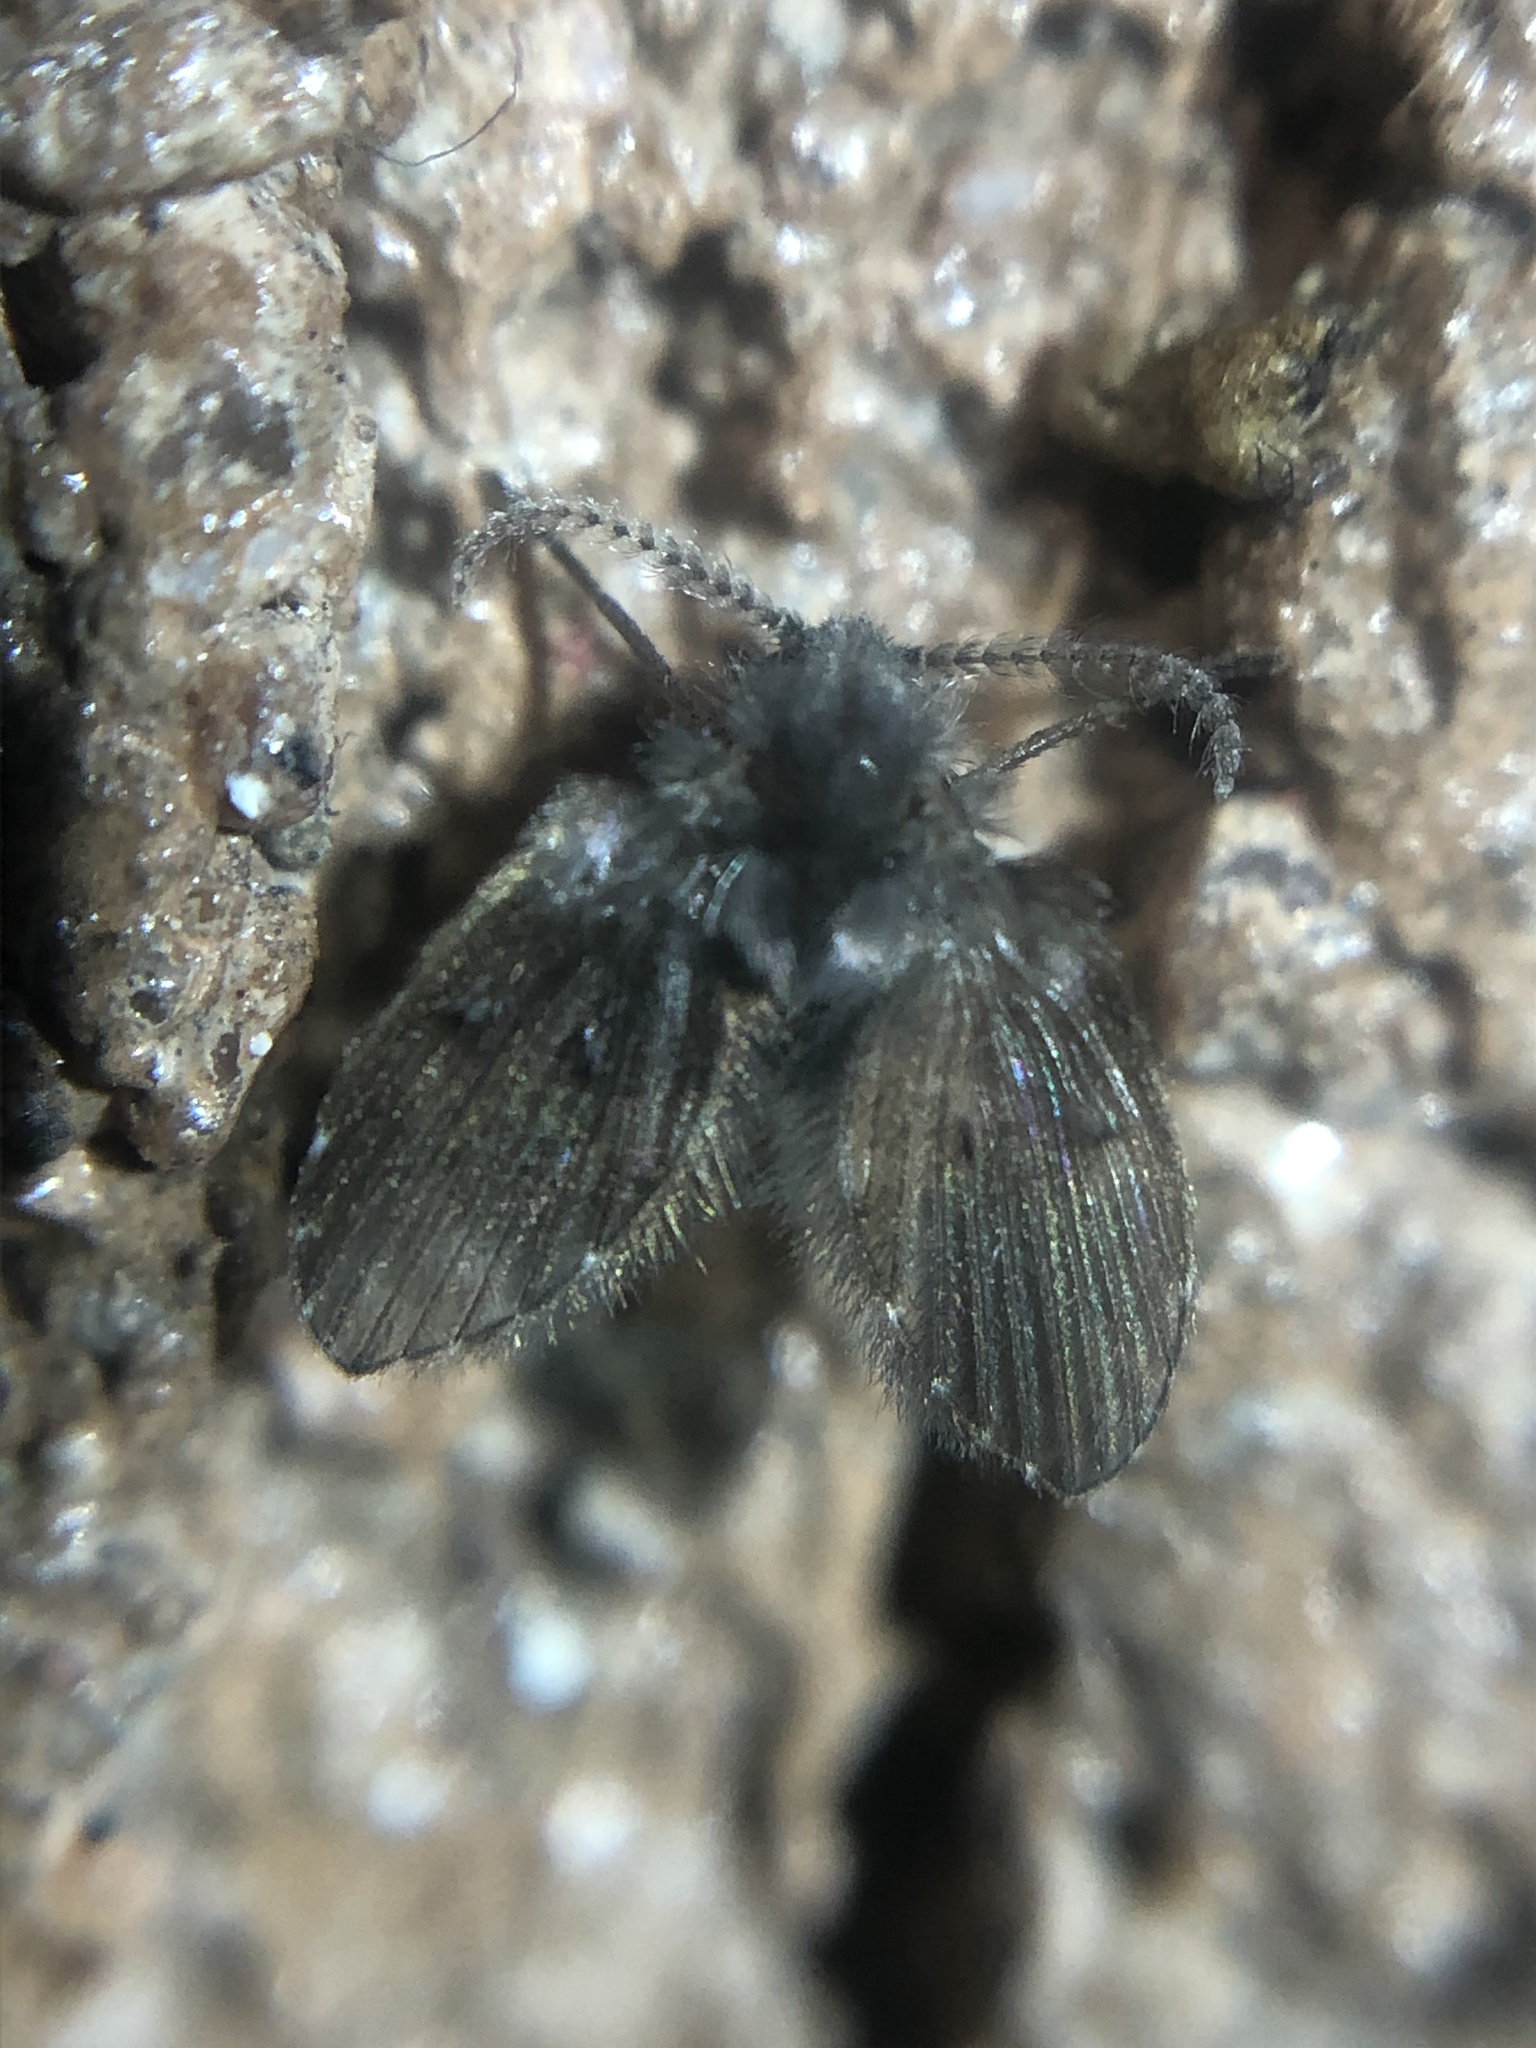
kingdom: Animalia
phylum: Arthropoda
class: Insecta
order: Diptera
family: Psychodidae
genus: Clogmia
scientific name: Clogmia albipunctatus
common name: White-spotted moth fly
